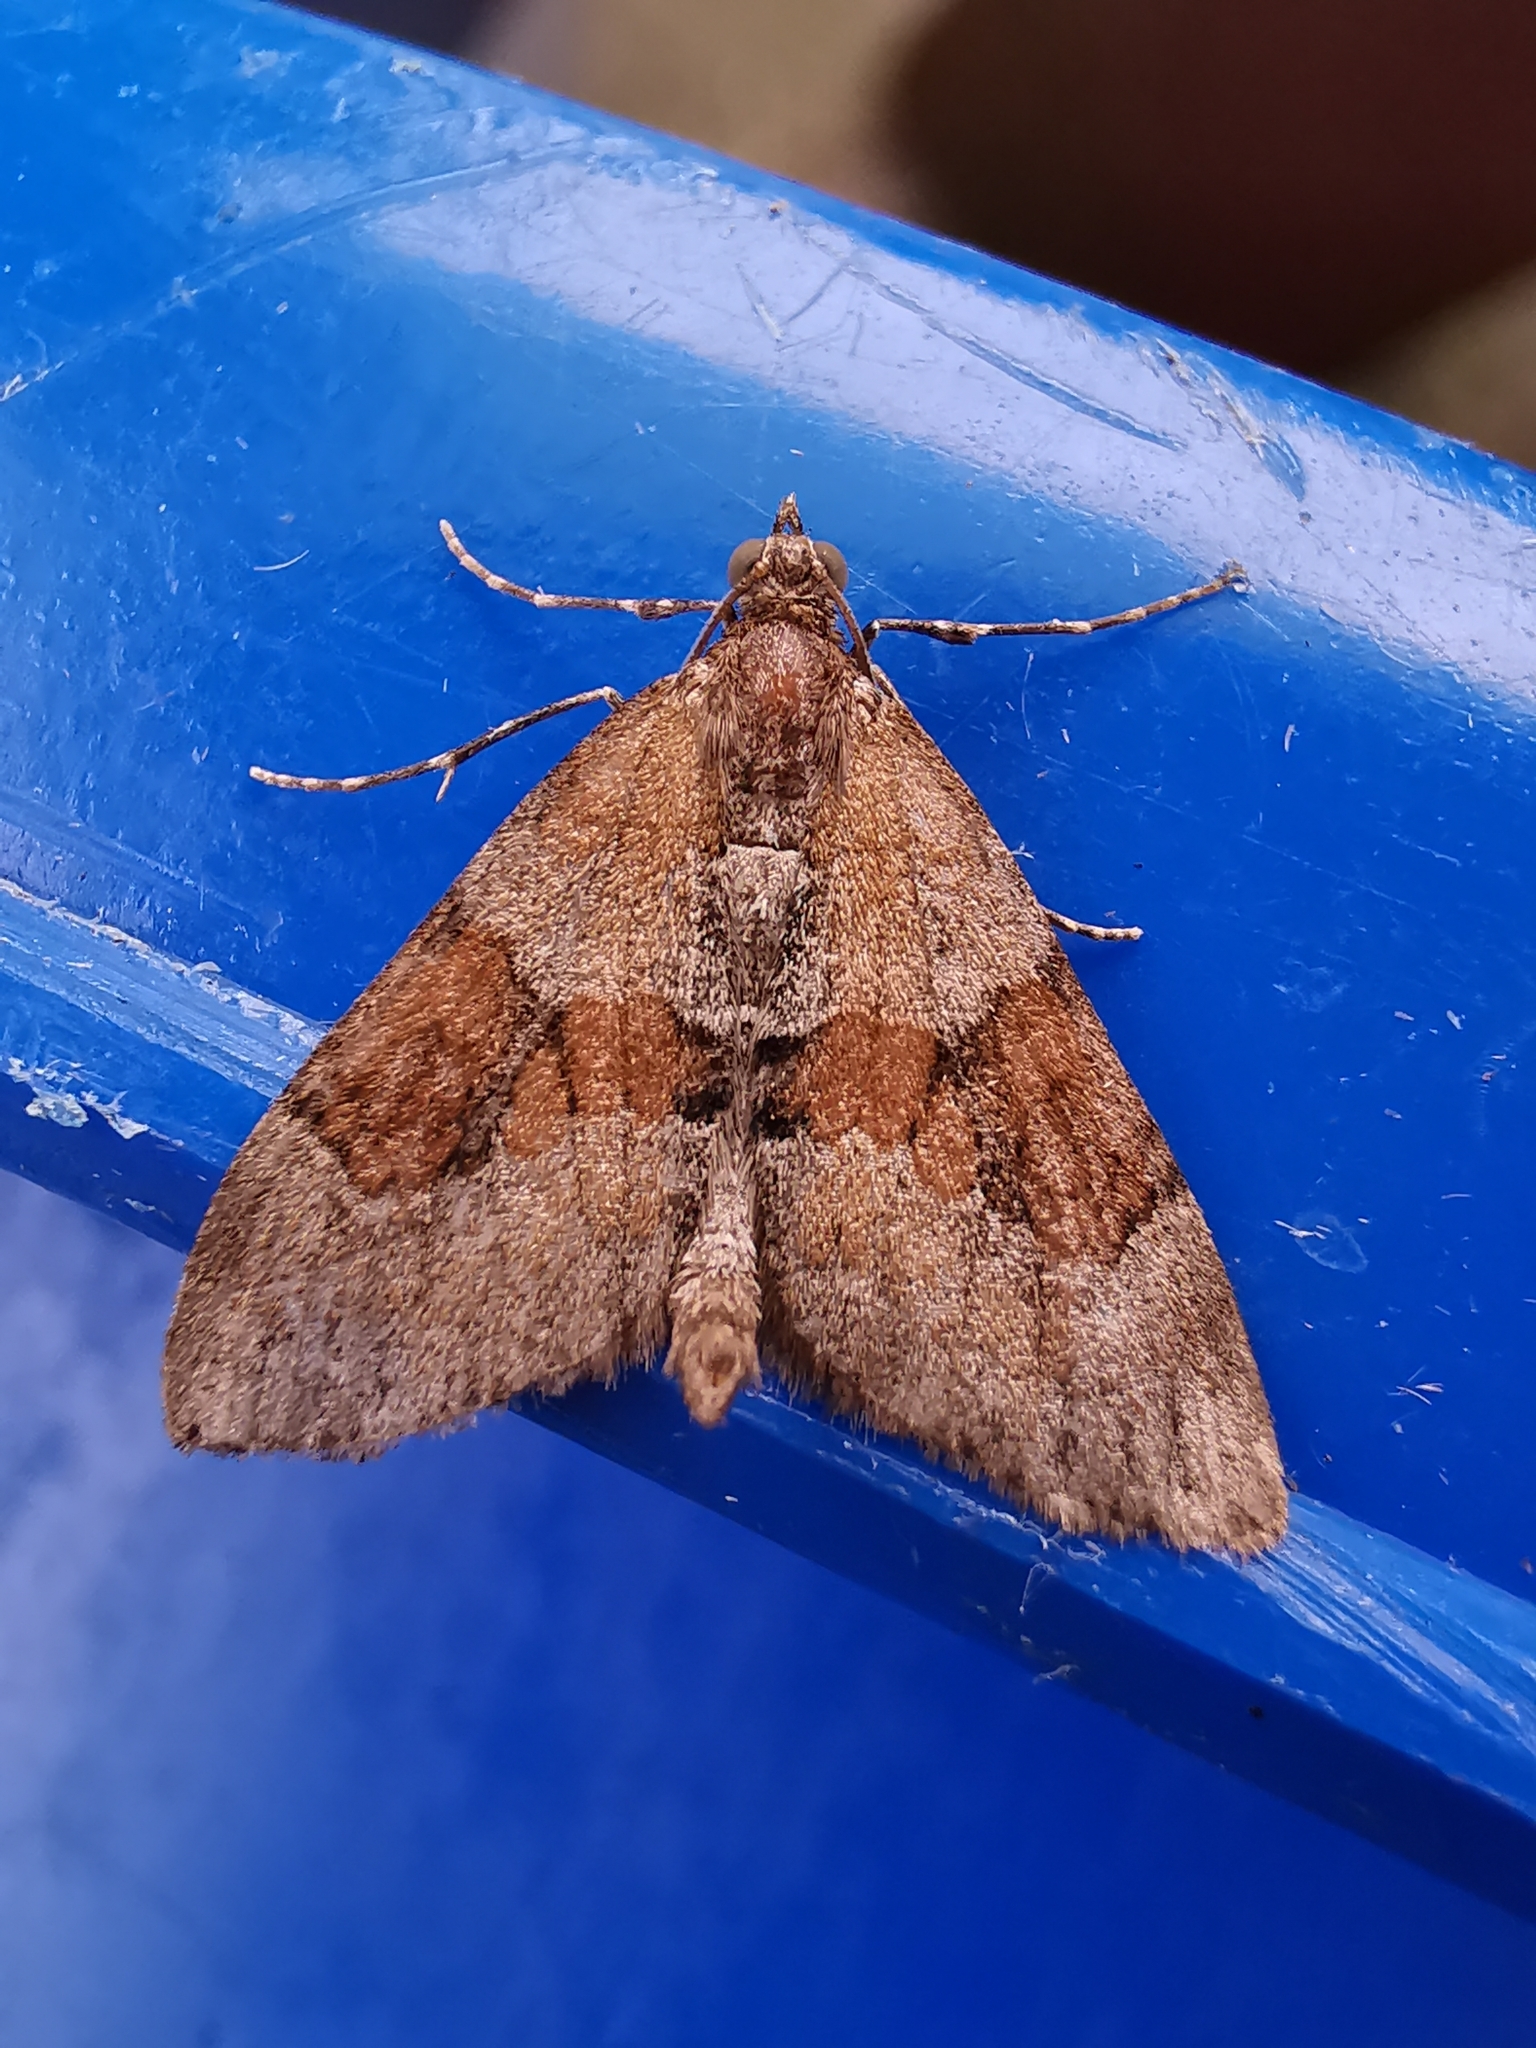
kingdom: Animalia
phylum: Arthropoda
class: Insecta
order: Lepidoptera
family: Geometridae
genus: Thera
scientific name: Thera obeliscata
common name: Grey pine carpet
